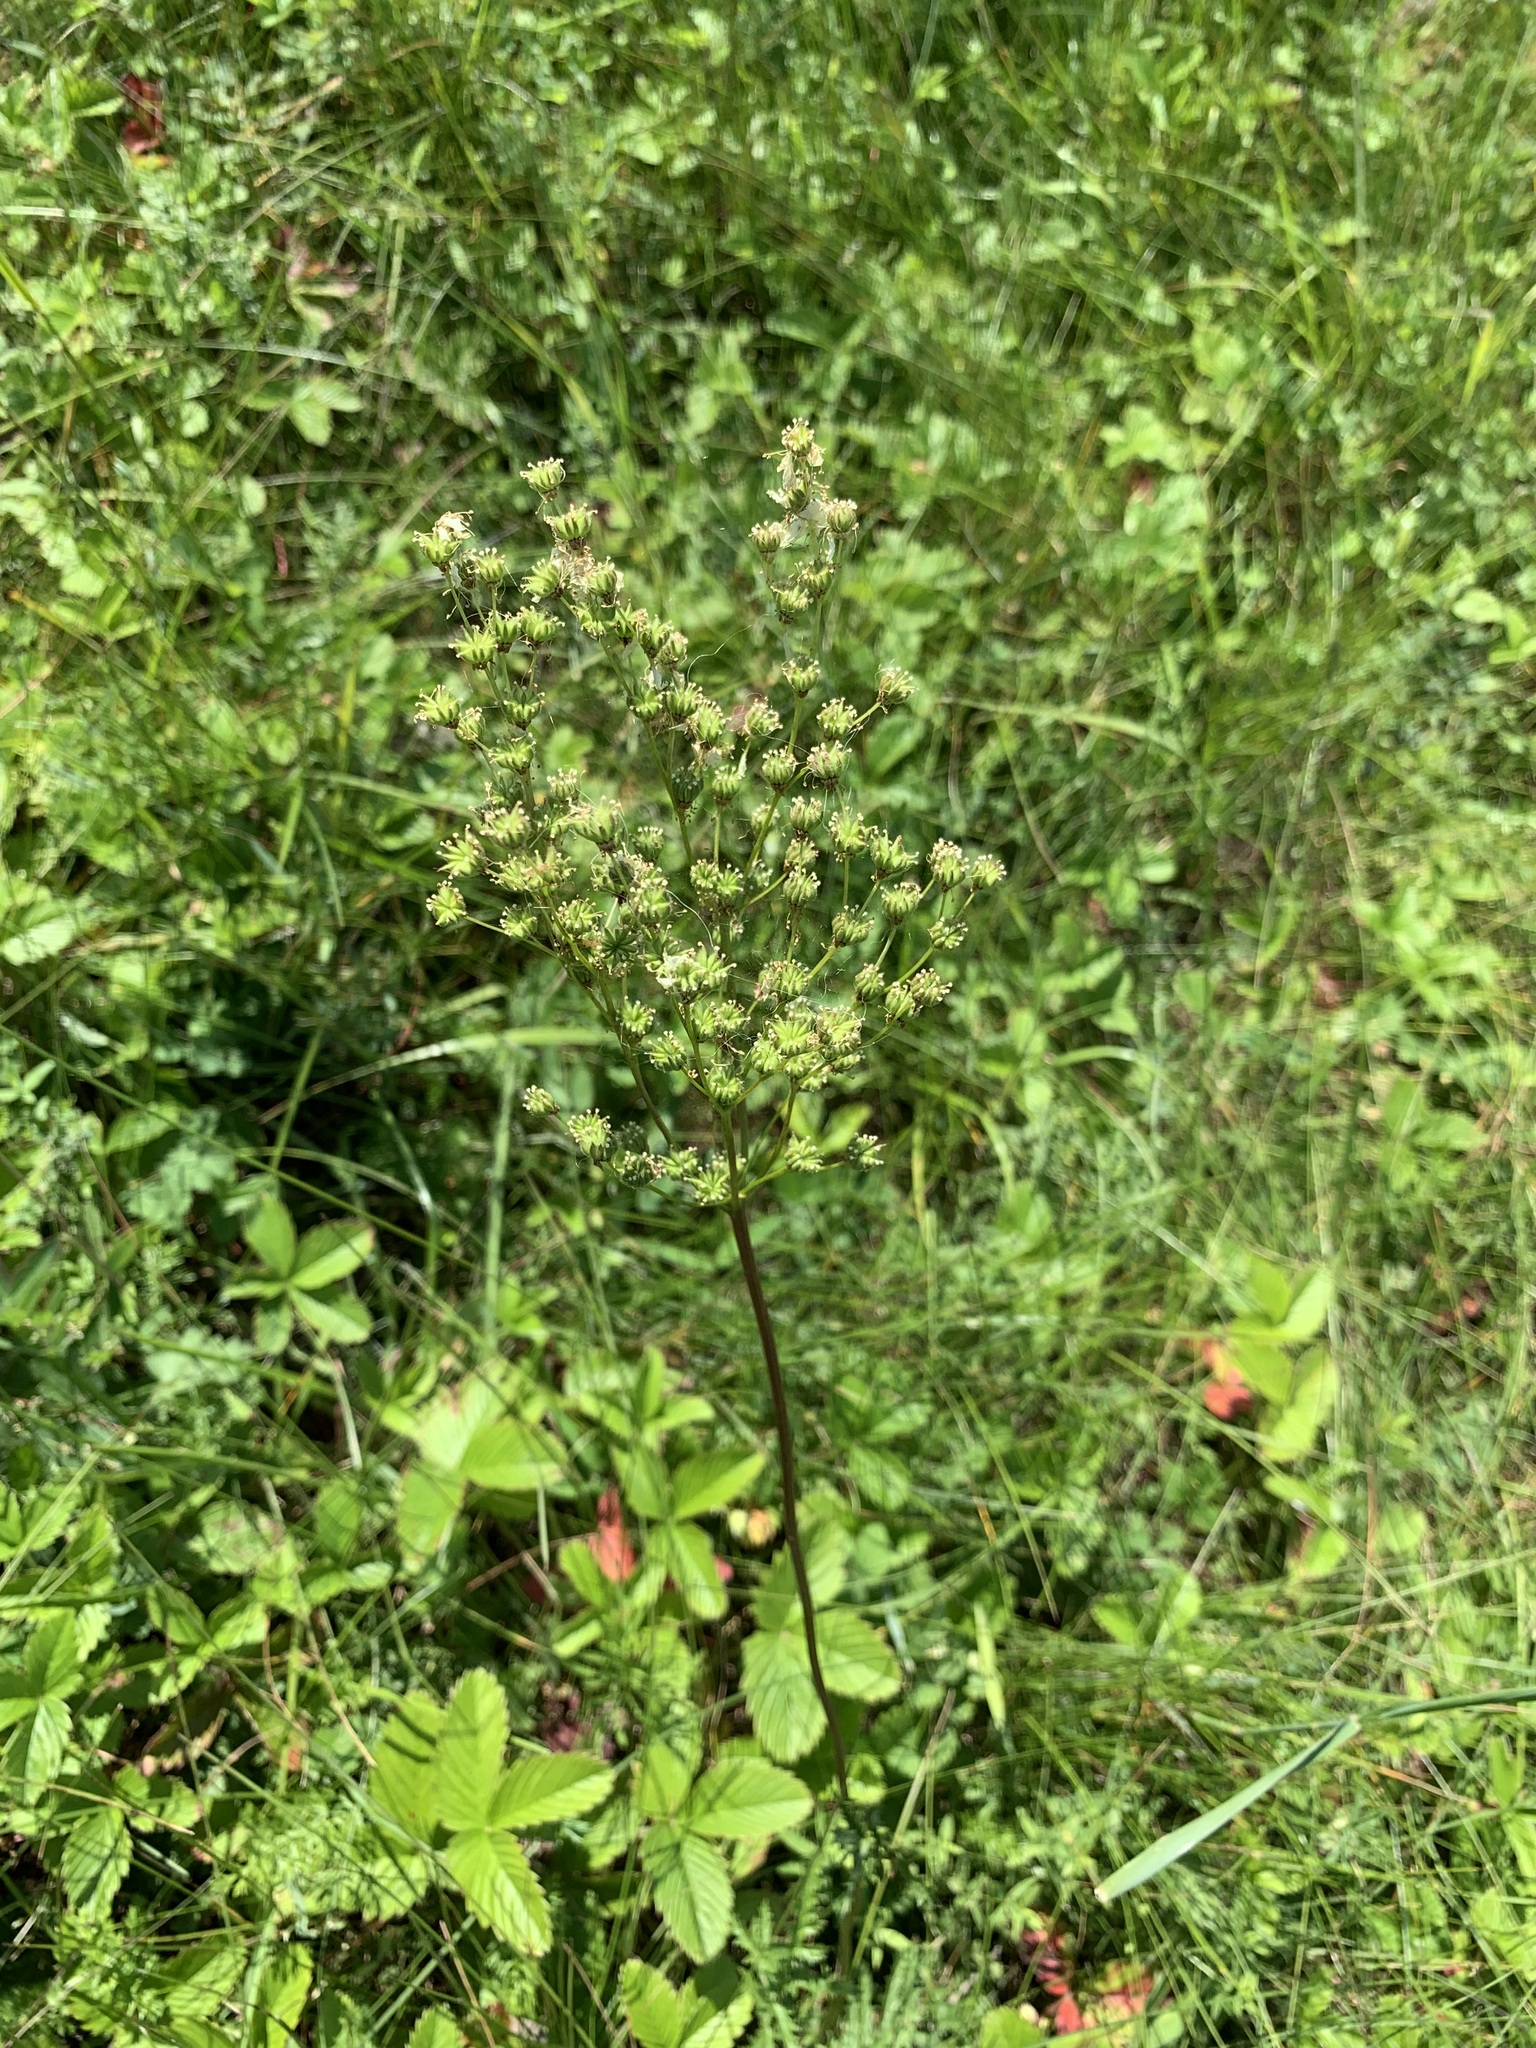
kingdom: Plantae
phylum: Tracheophyta
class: Magnoliopsida
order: Rosales
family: Rosaceae
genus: Filipendula
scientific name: Filipendula vulgaris
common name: Dropwort
